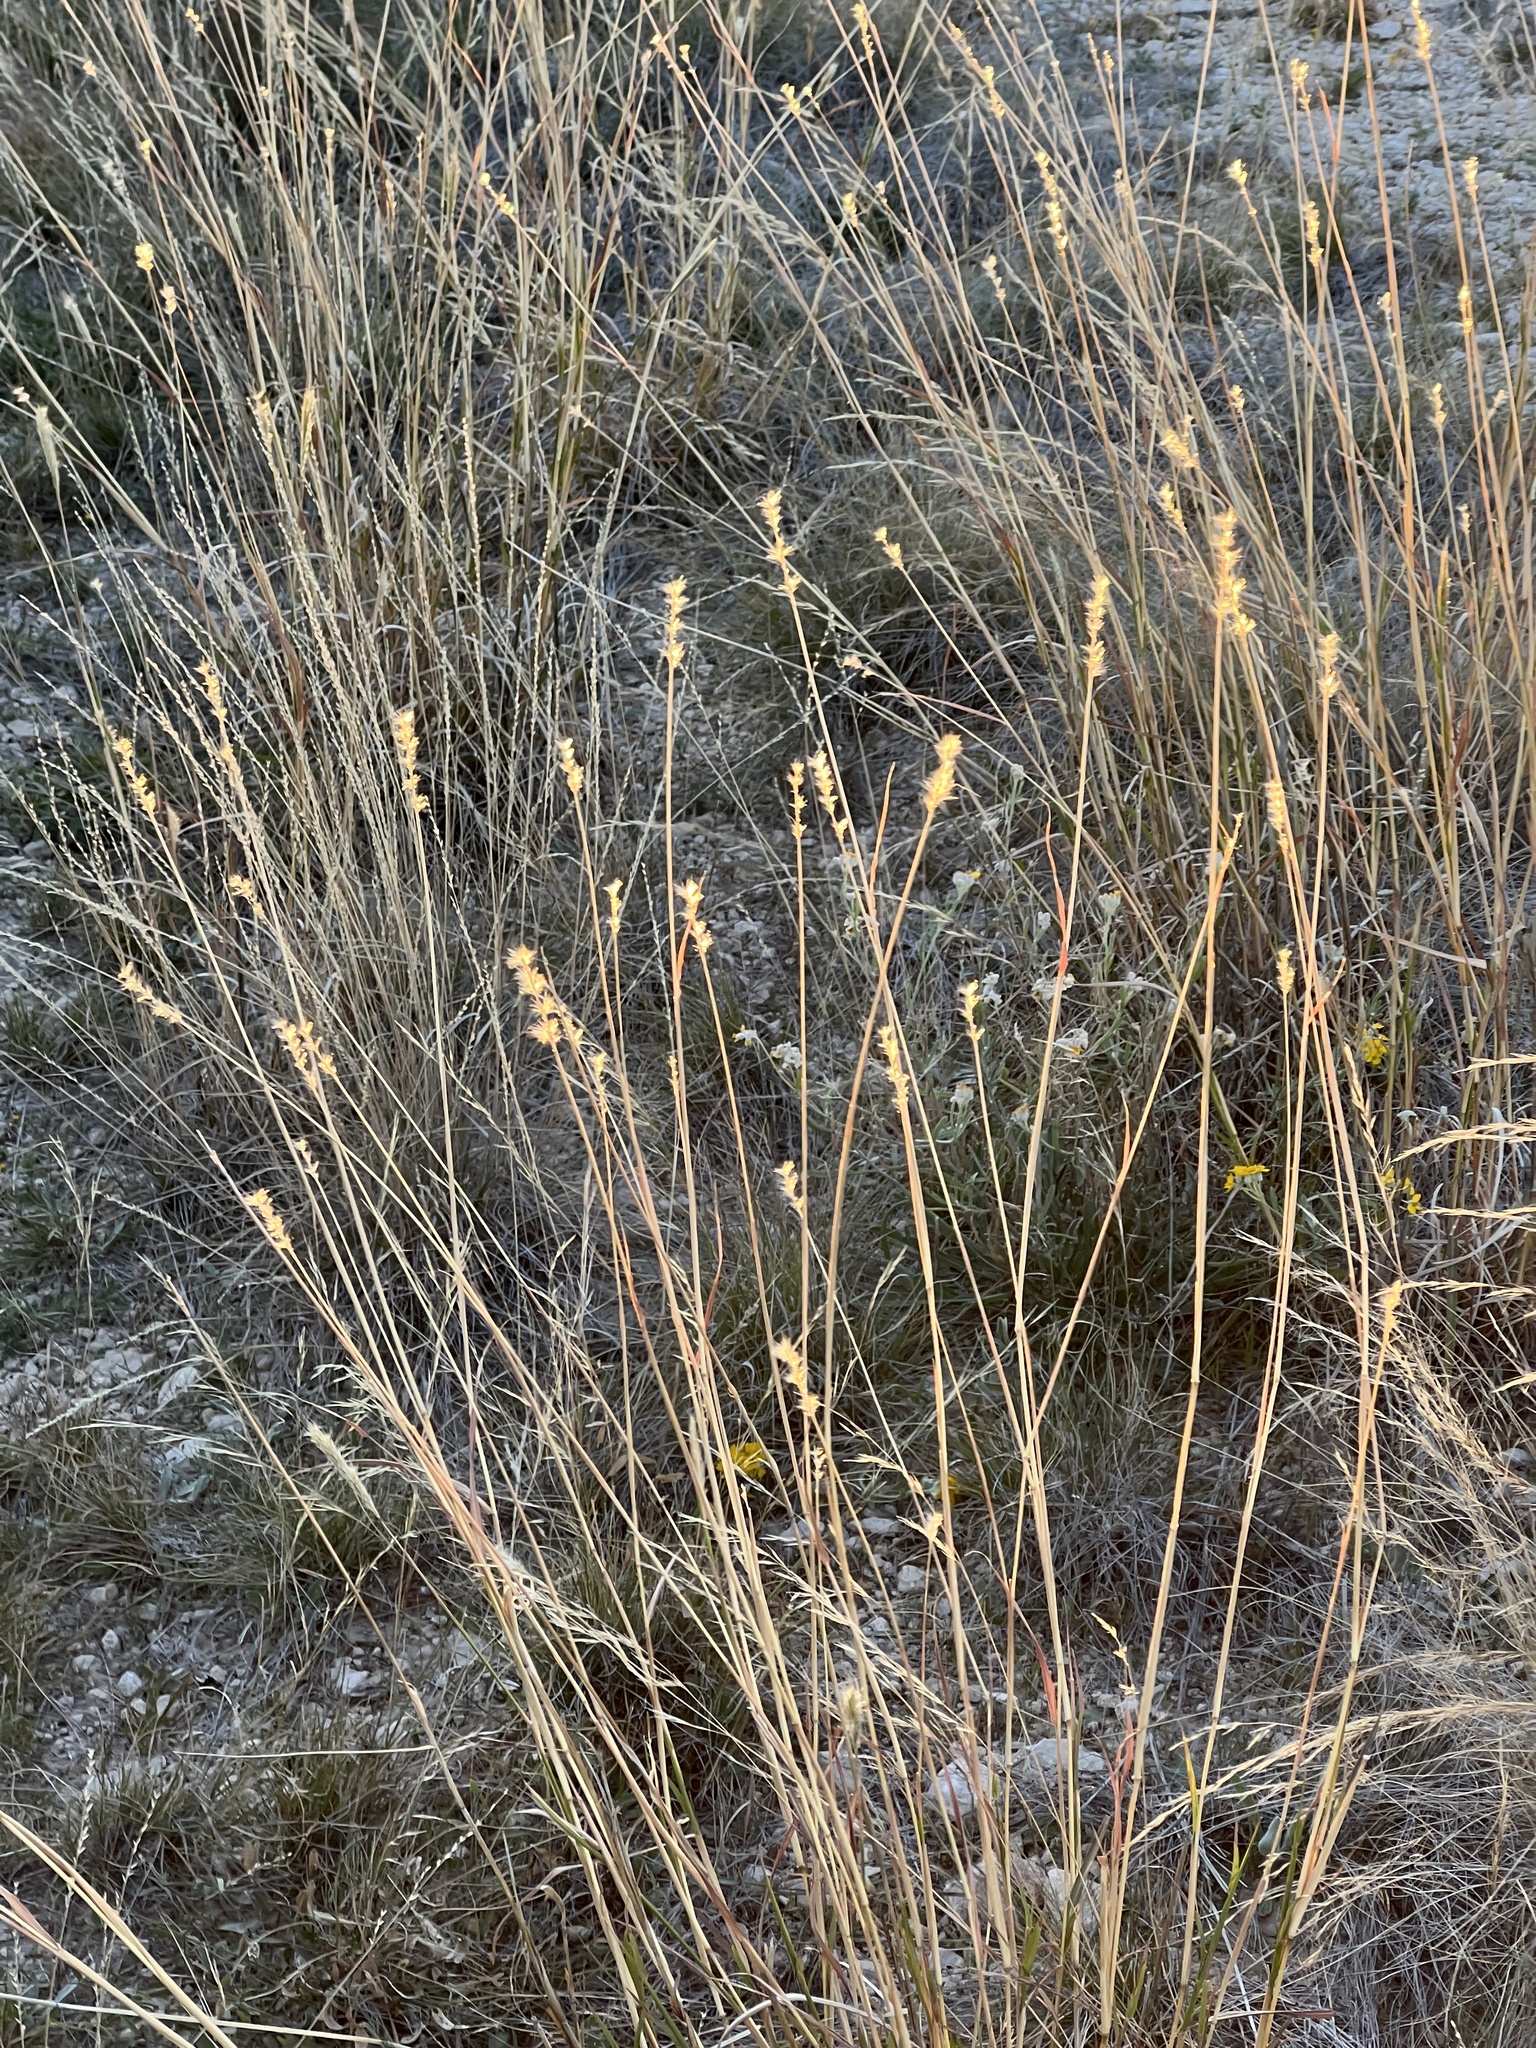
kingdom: Plantae
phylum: Tracheophyta
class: Liliopsida
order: Poales
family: Poaceae
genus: Bothriochloa
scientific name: Bothriochloa barbinodis
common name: Cane bluestem
